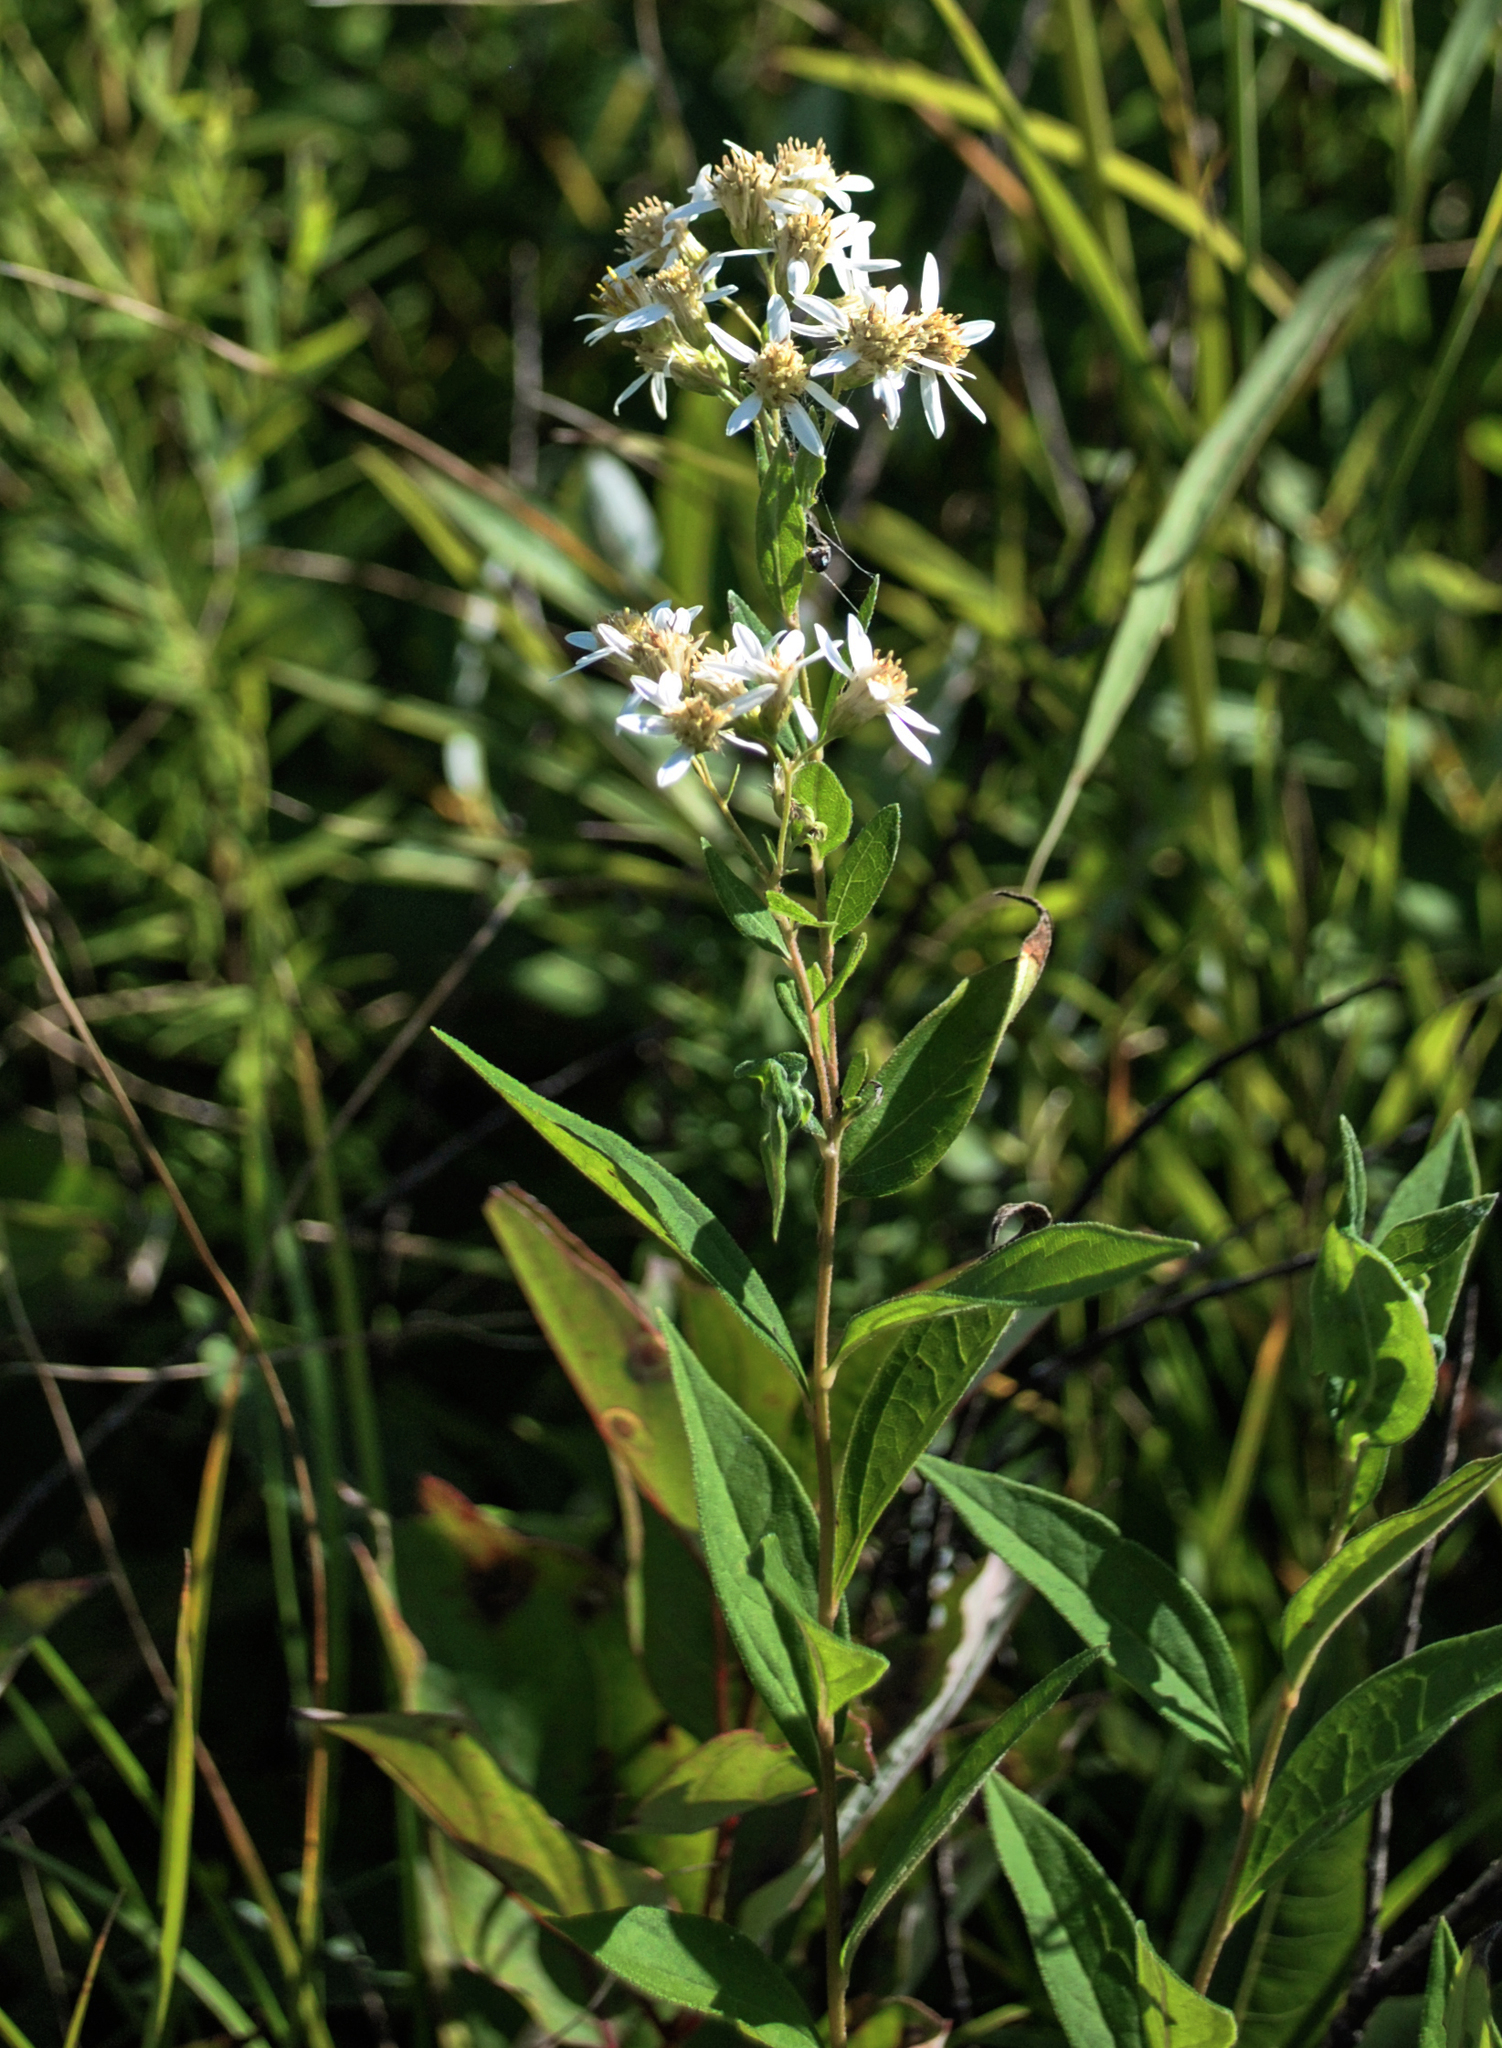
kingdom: Plantae
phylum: Tracheophyta
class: Magnoliopsida
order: Asterales
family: Asteraceae
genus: Doellingeria
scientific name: Doellingeria umbellata
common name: Flat-top white aster
